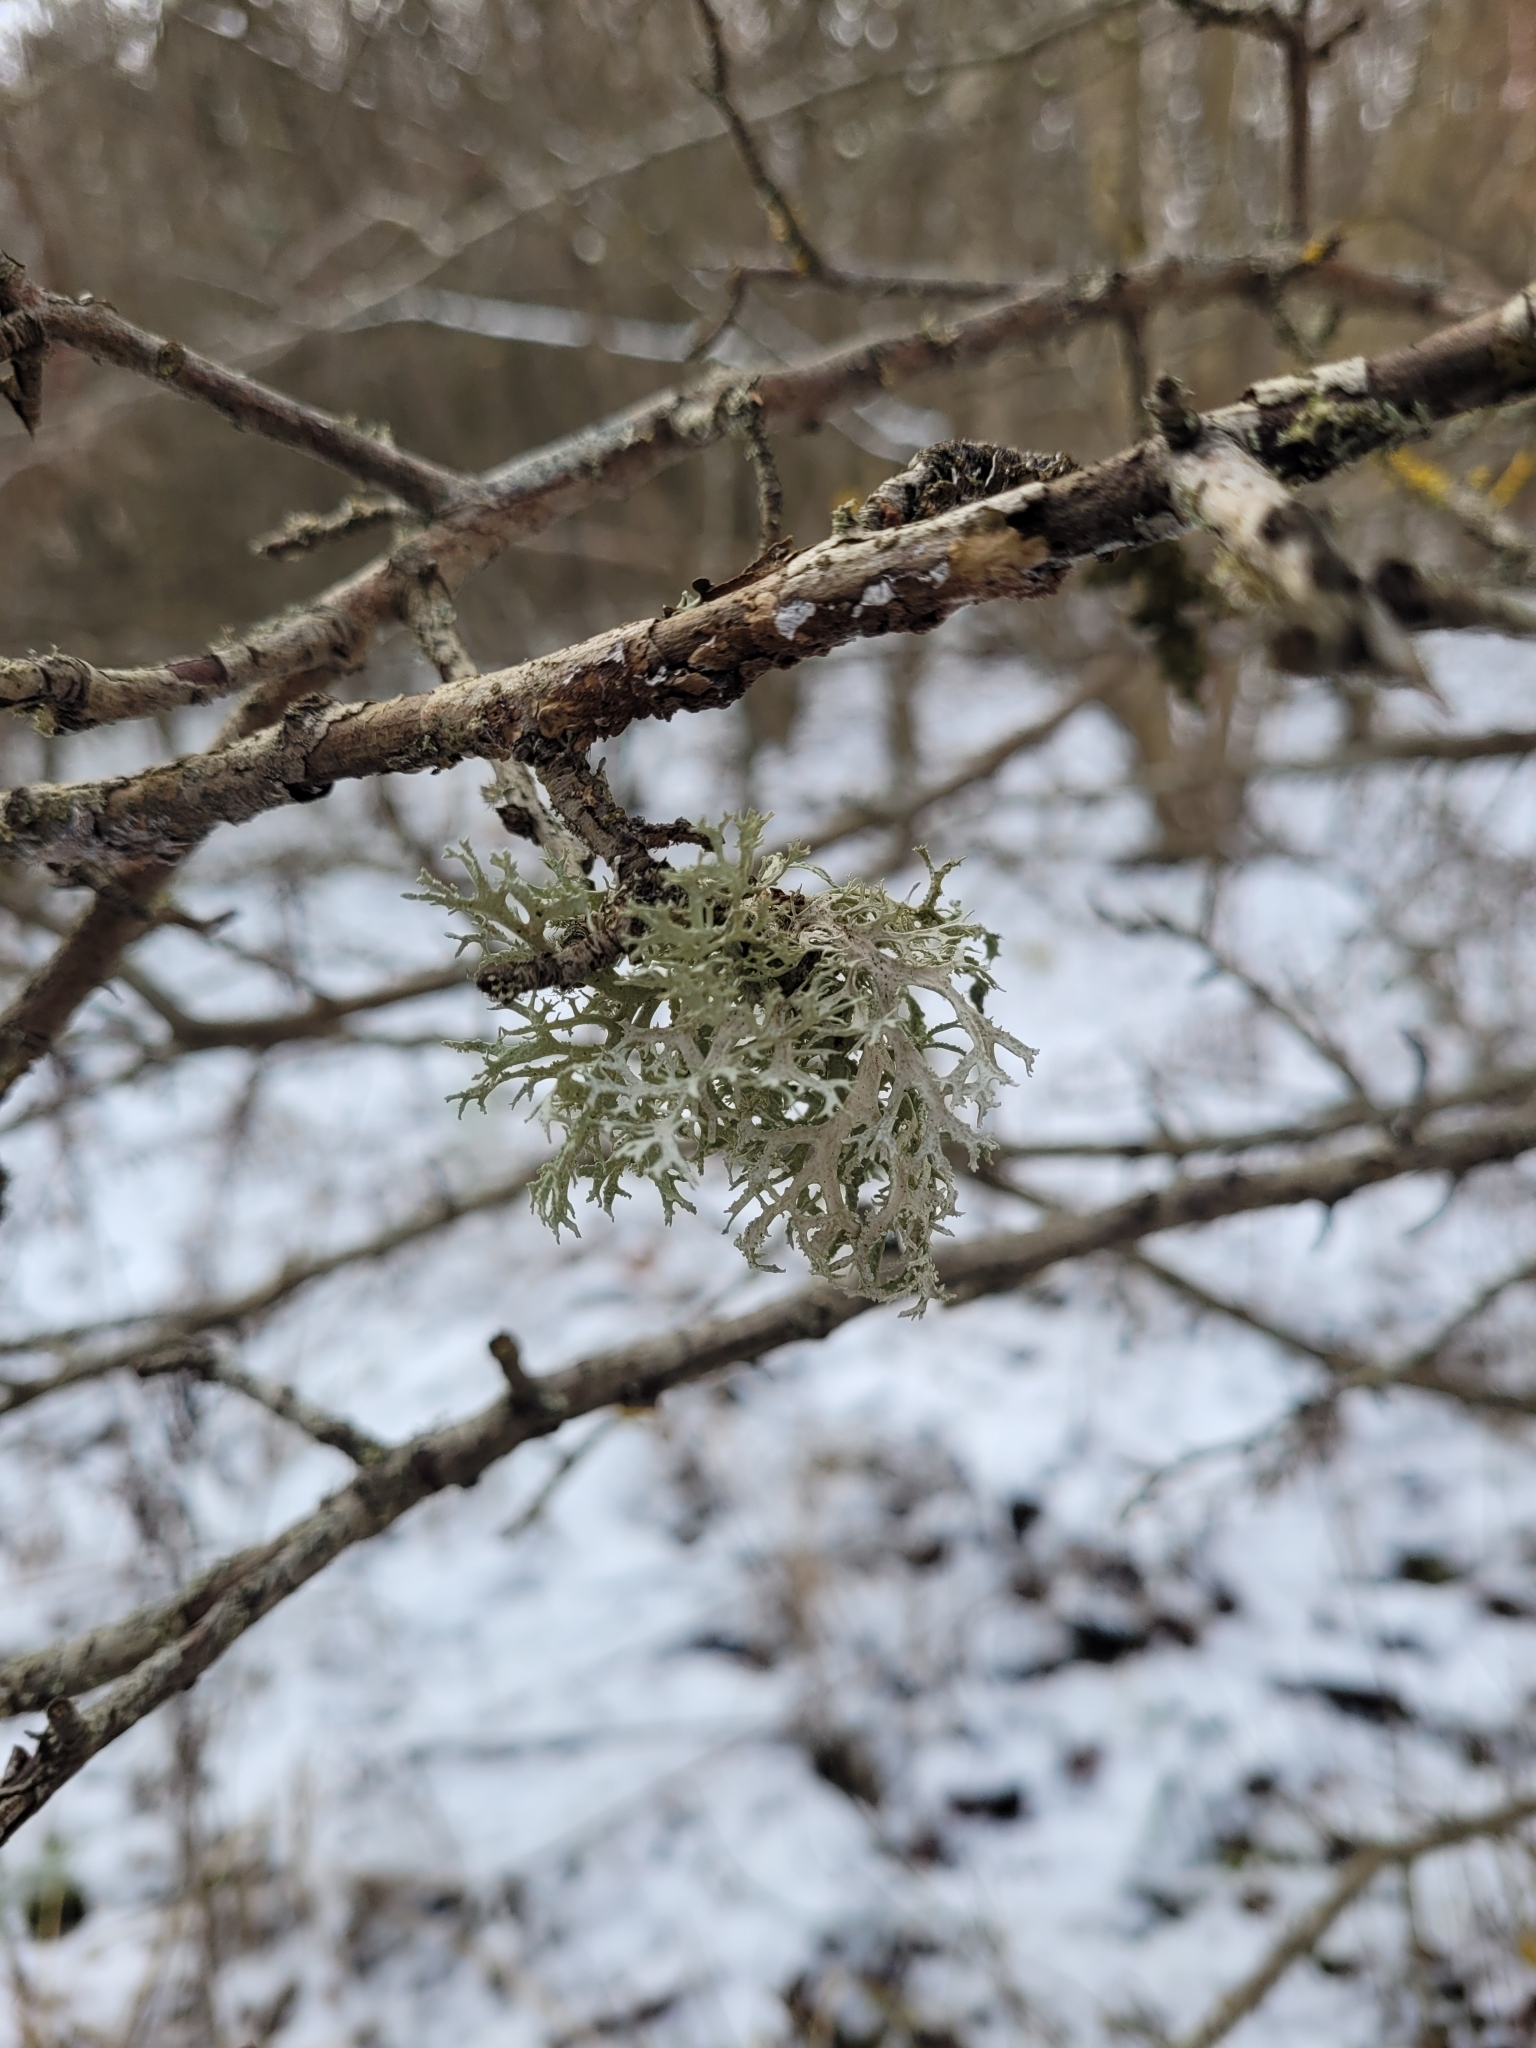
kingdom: Fungi
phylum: Ascomycota
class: Lecanoromycetes
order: Lecanorales
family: Parmeliaceae
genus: Evernia
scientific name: Evernia prunastri
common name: Oak moss
